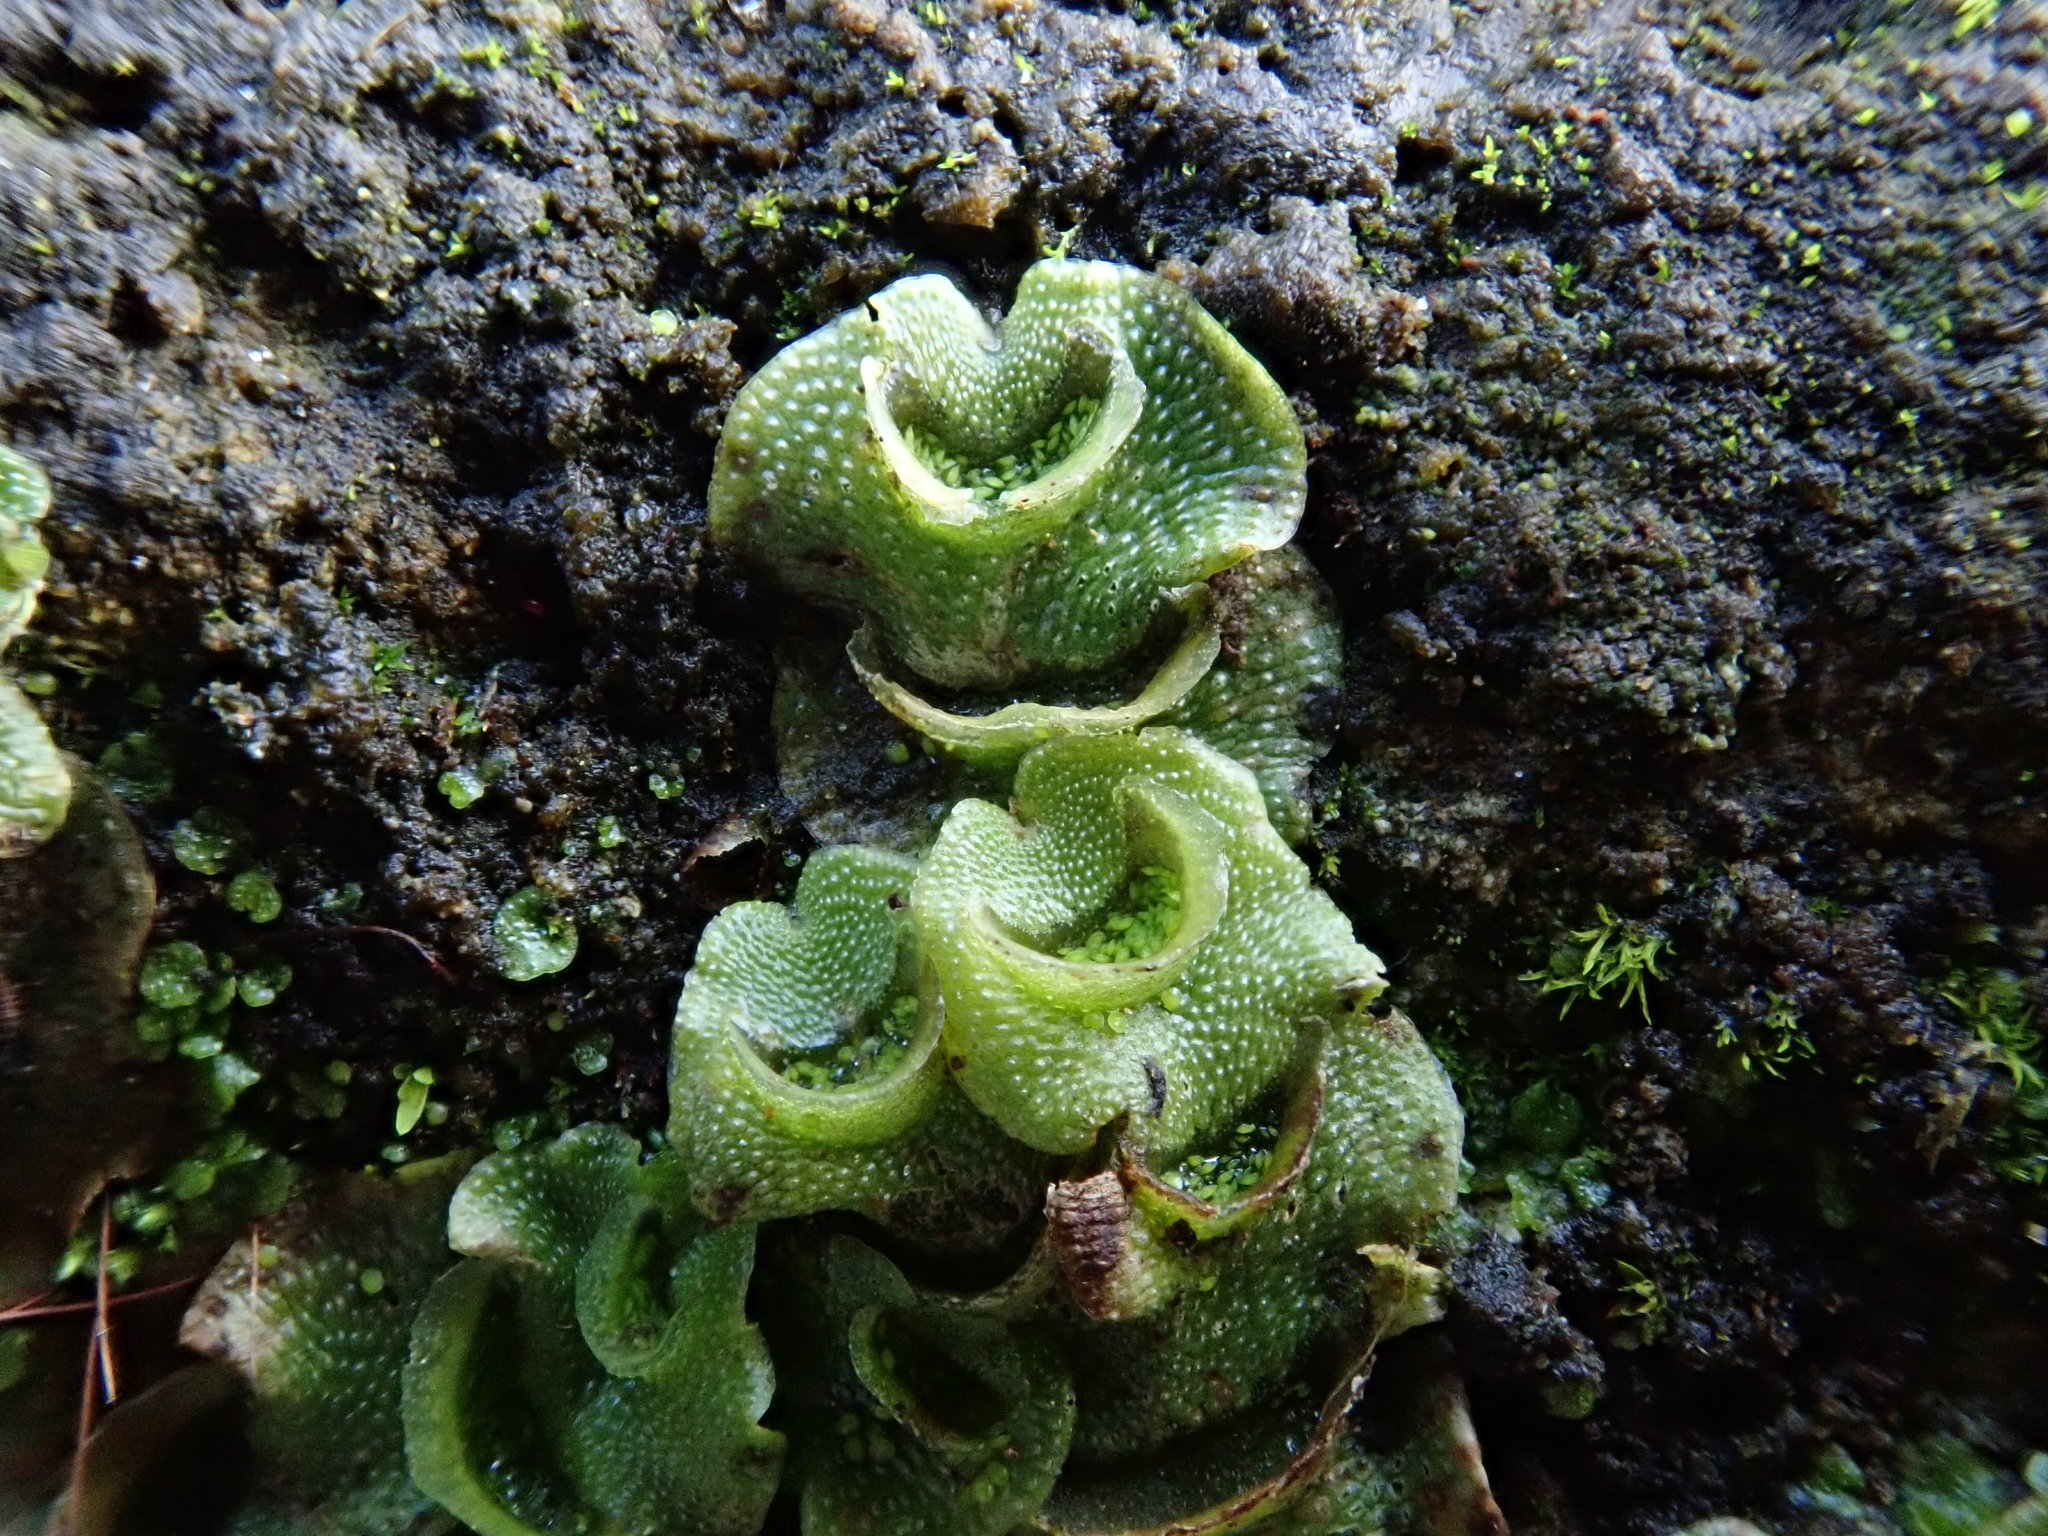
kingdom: Plantae
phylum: Marchantiophyta
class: Marchantiopsida
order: Lunulariales
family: Lunulariaceae
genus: Lunularia
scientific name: Lunularia cruciata
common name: Crescent-cup liverwort
